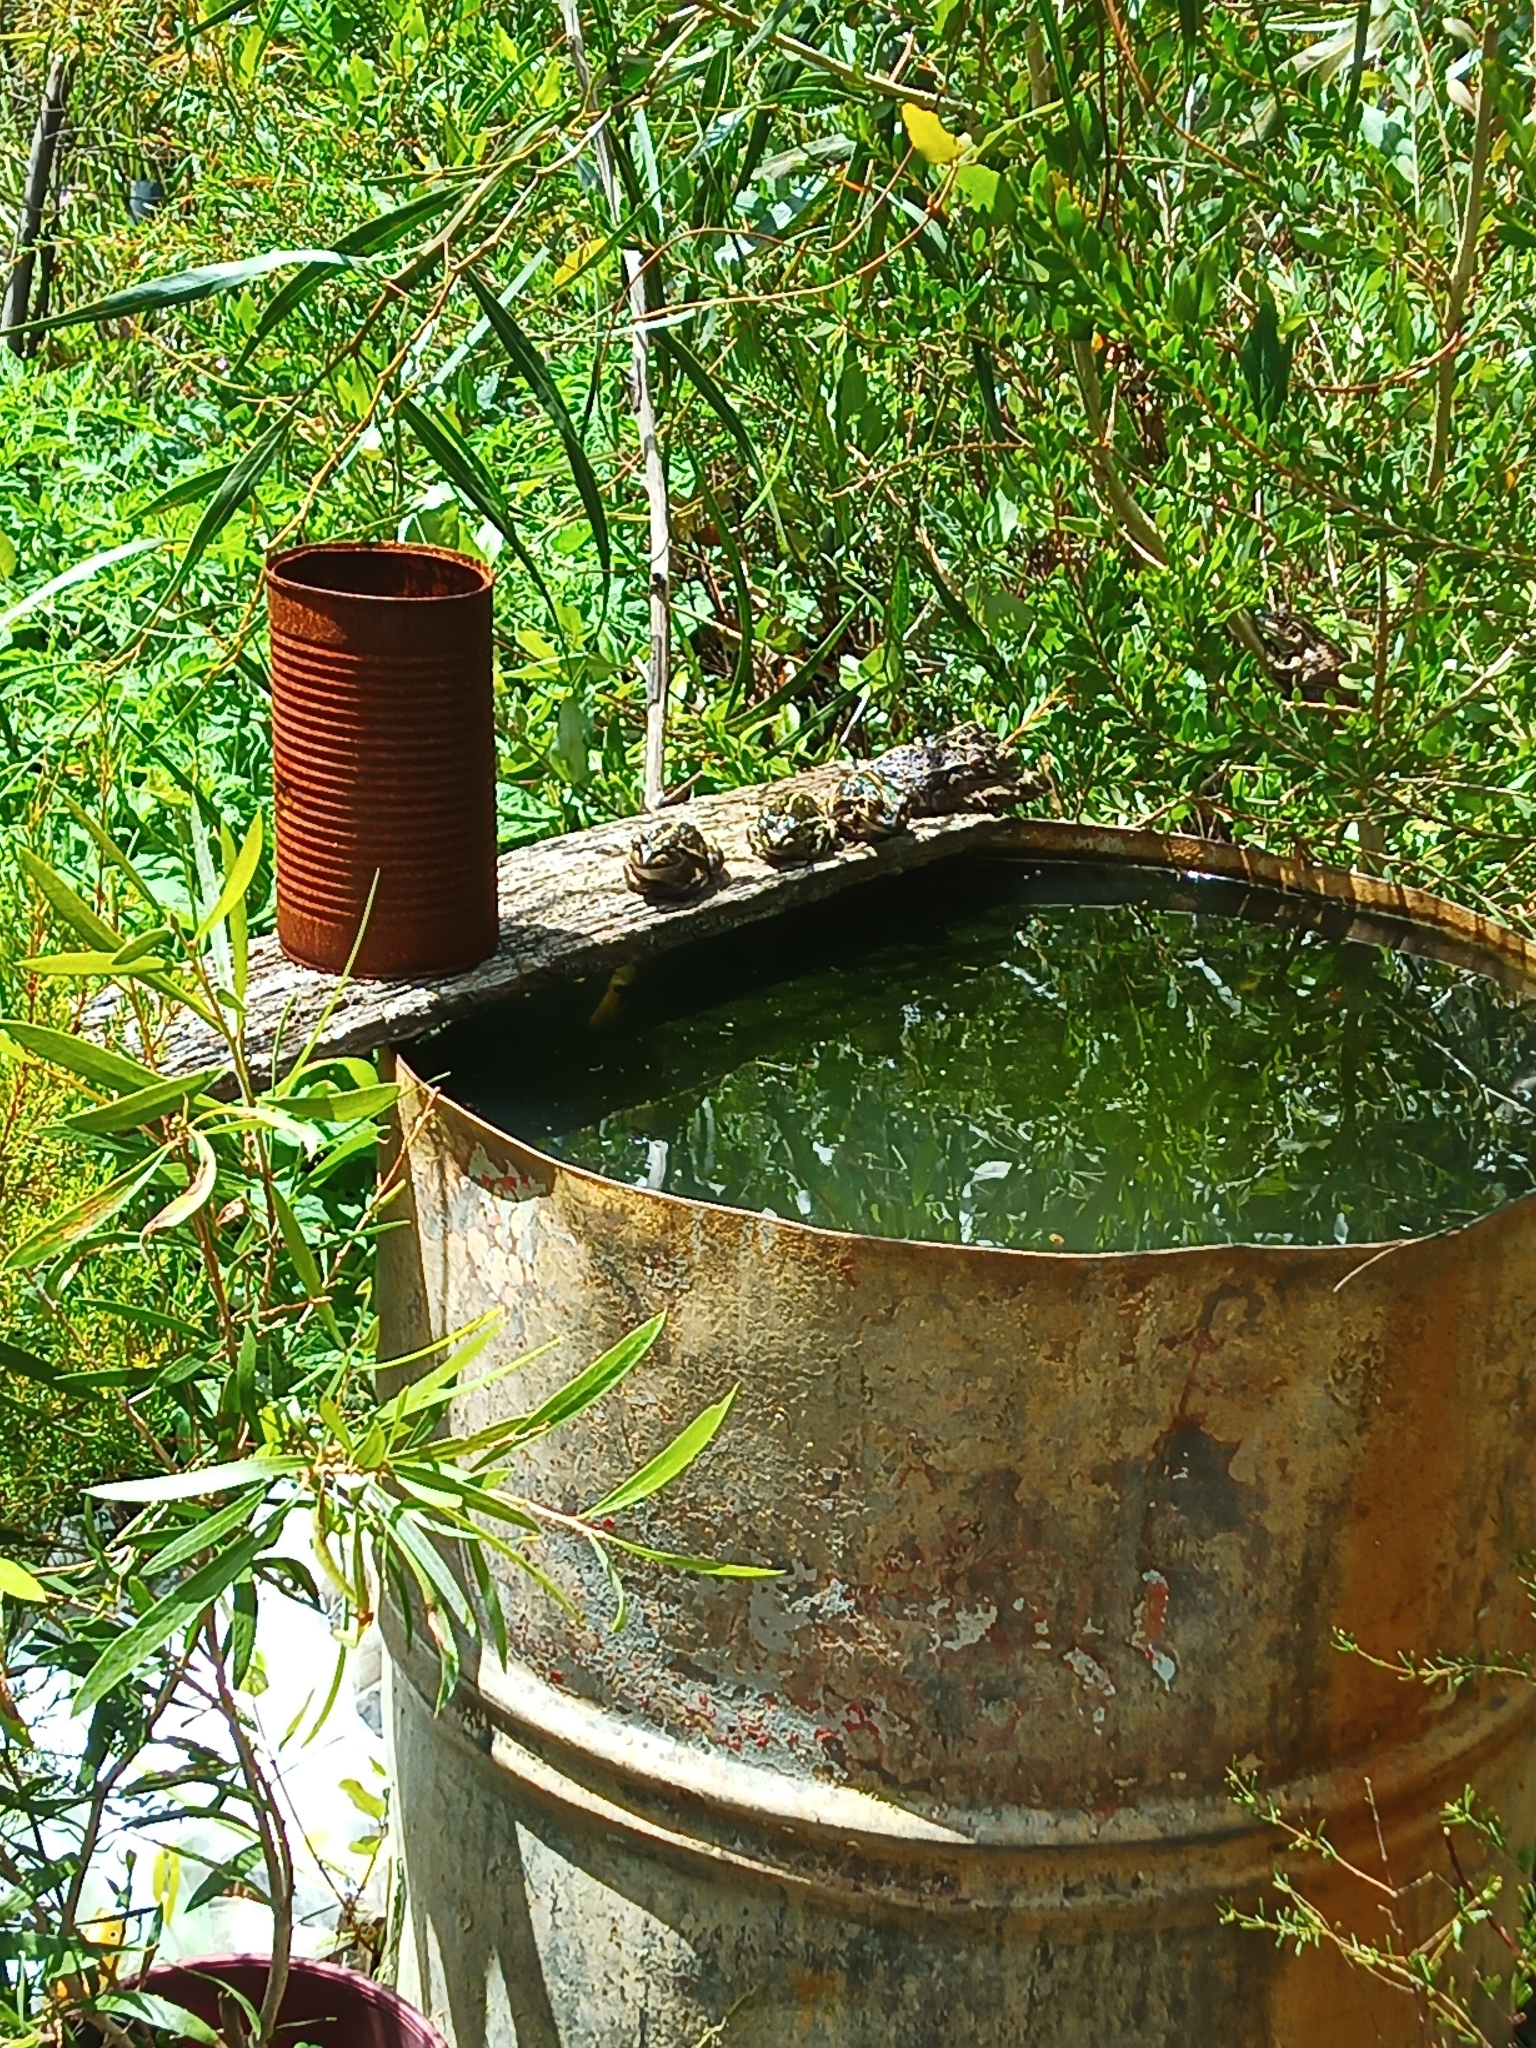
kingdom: Animalia
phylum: Chordata
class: Amphibia
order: Anura
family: Pelodryadidae
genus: Ranoidea
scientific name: Ranoidea moorei
